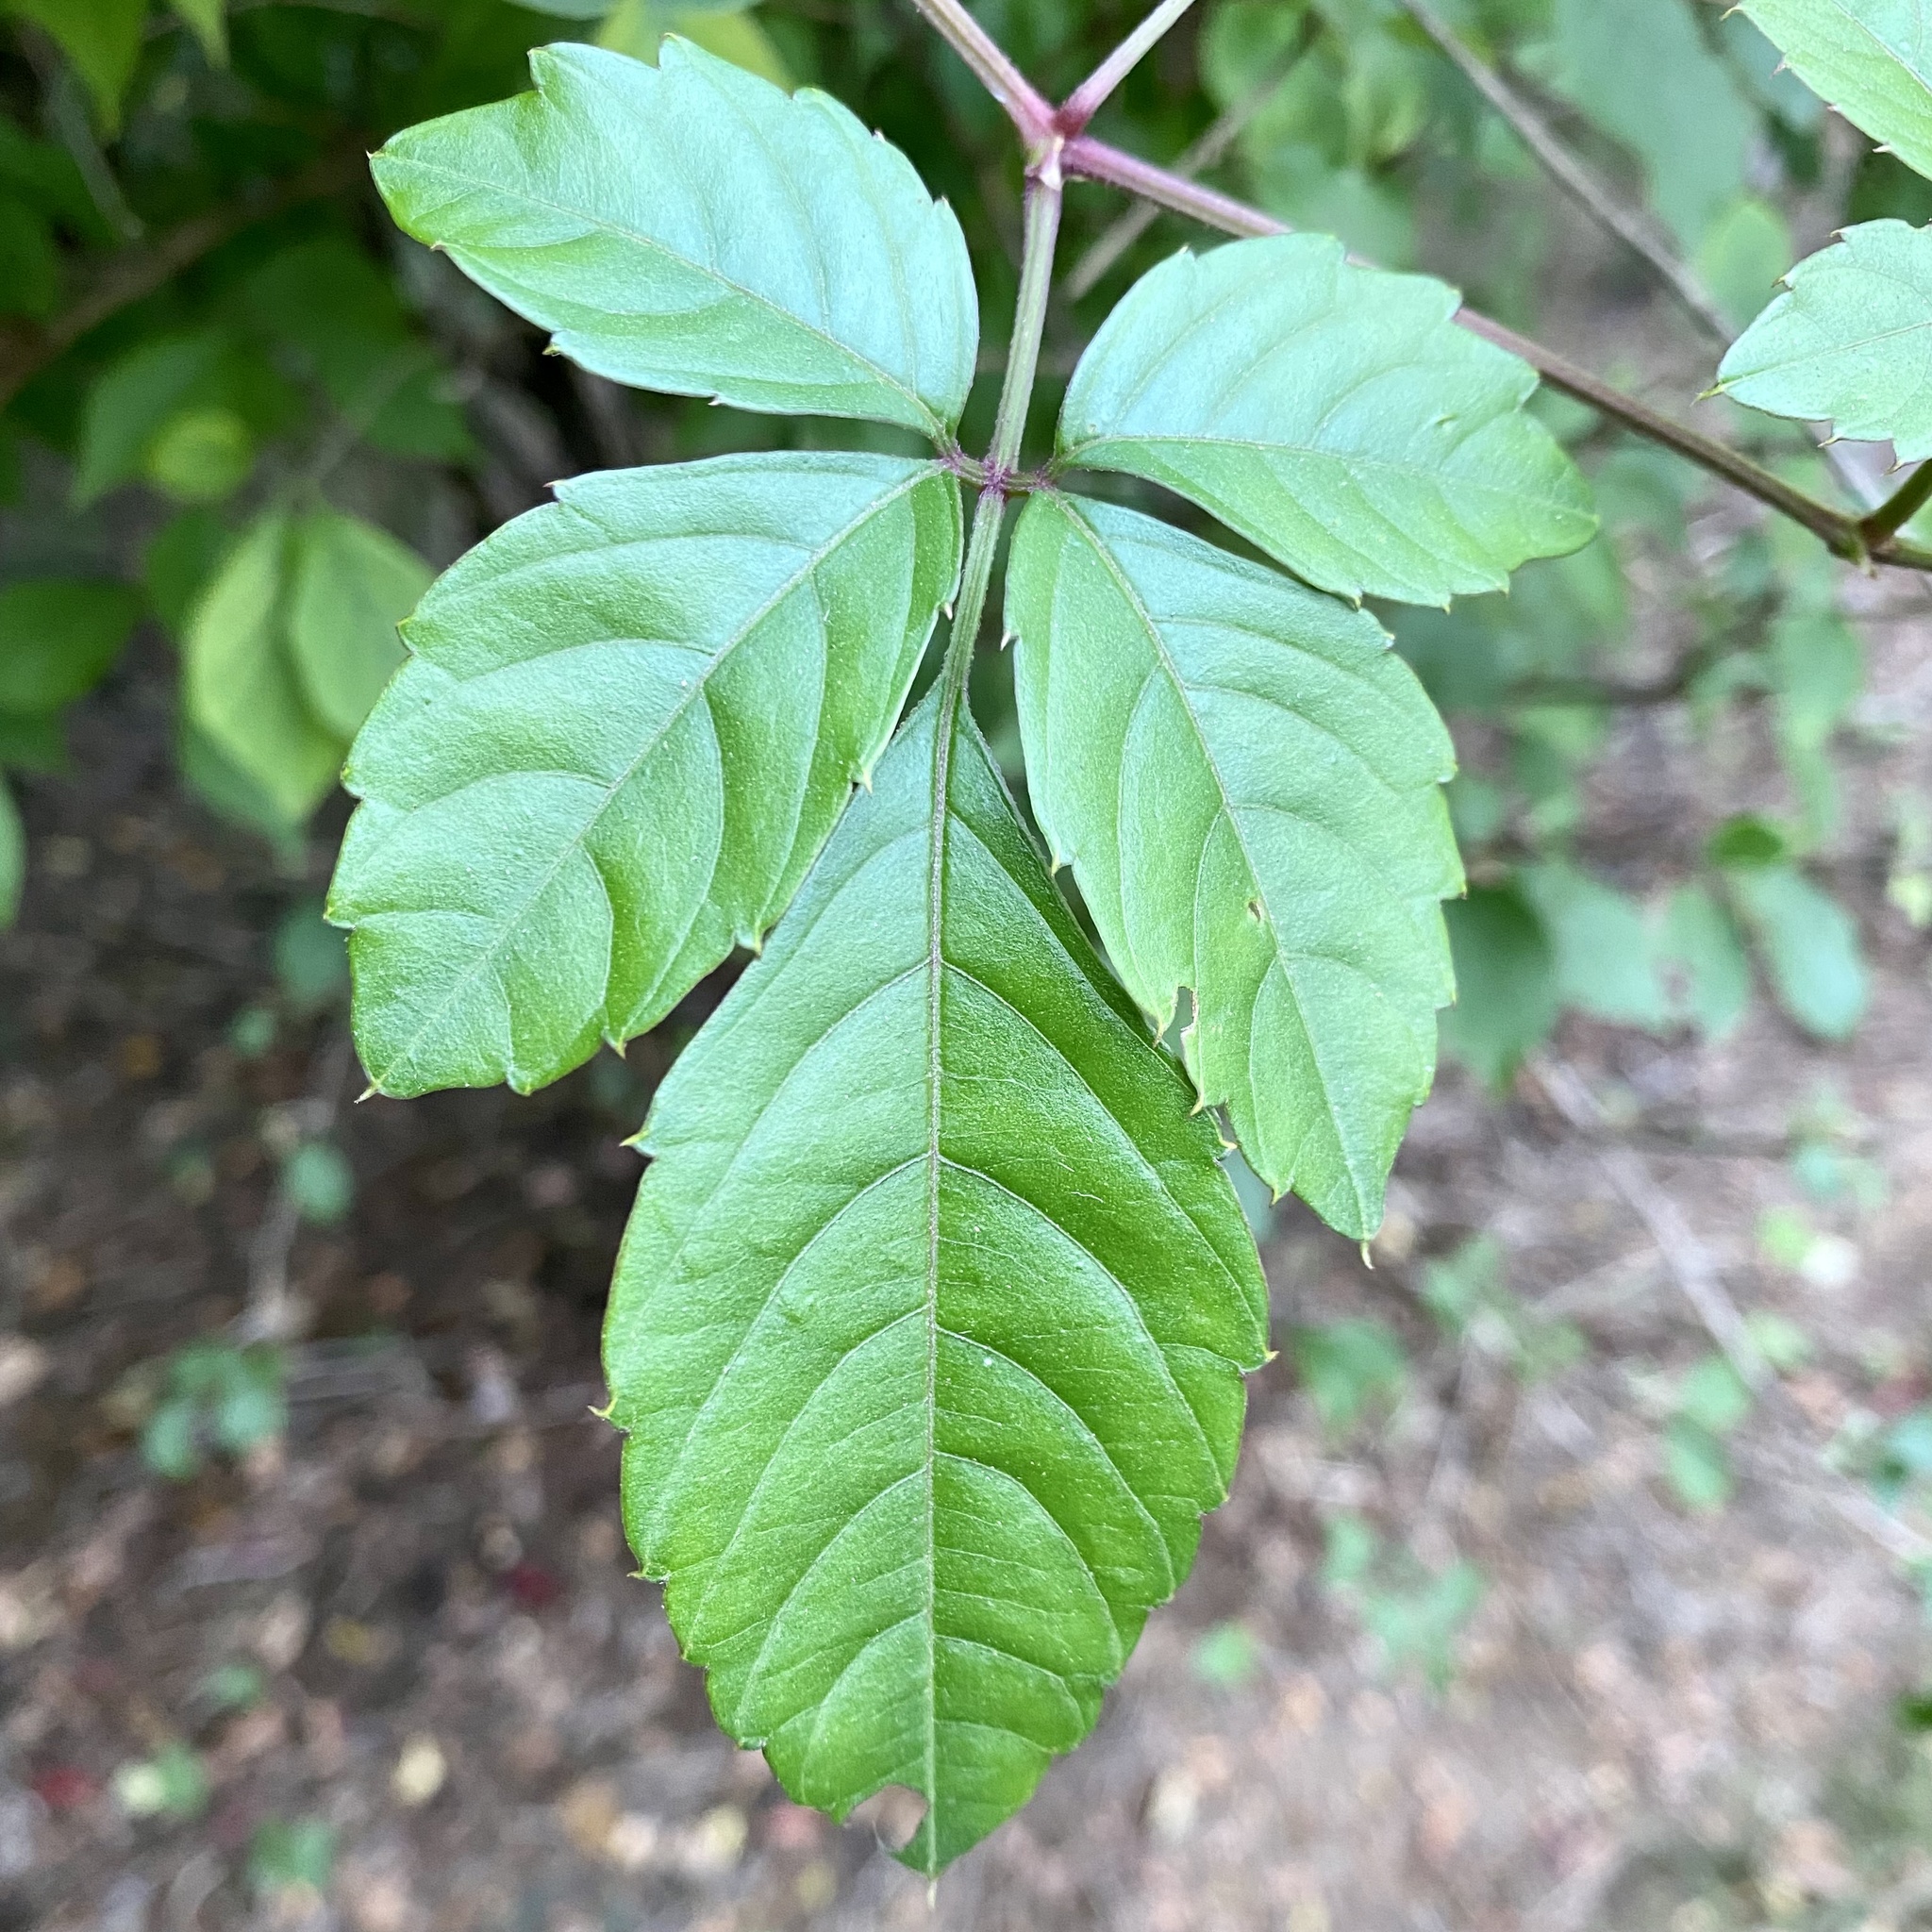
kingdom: Plantae
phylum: Tracheophyta
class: Magnoliopsida
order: Vitales
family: Vitaceae
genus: Causonis
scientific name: Causonis japonica
